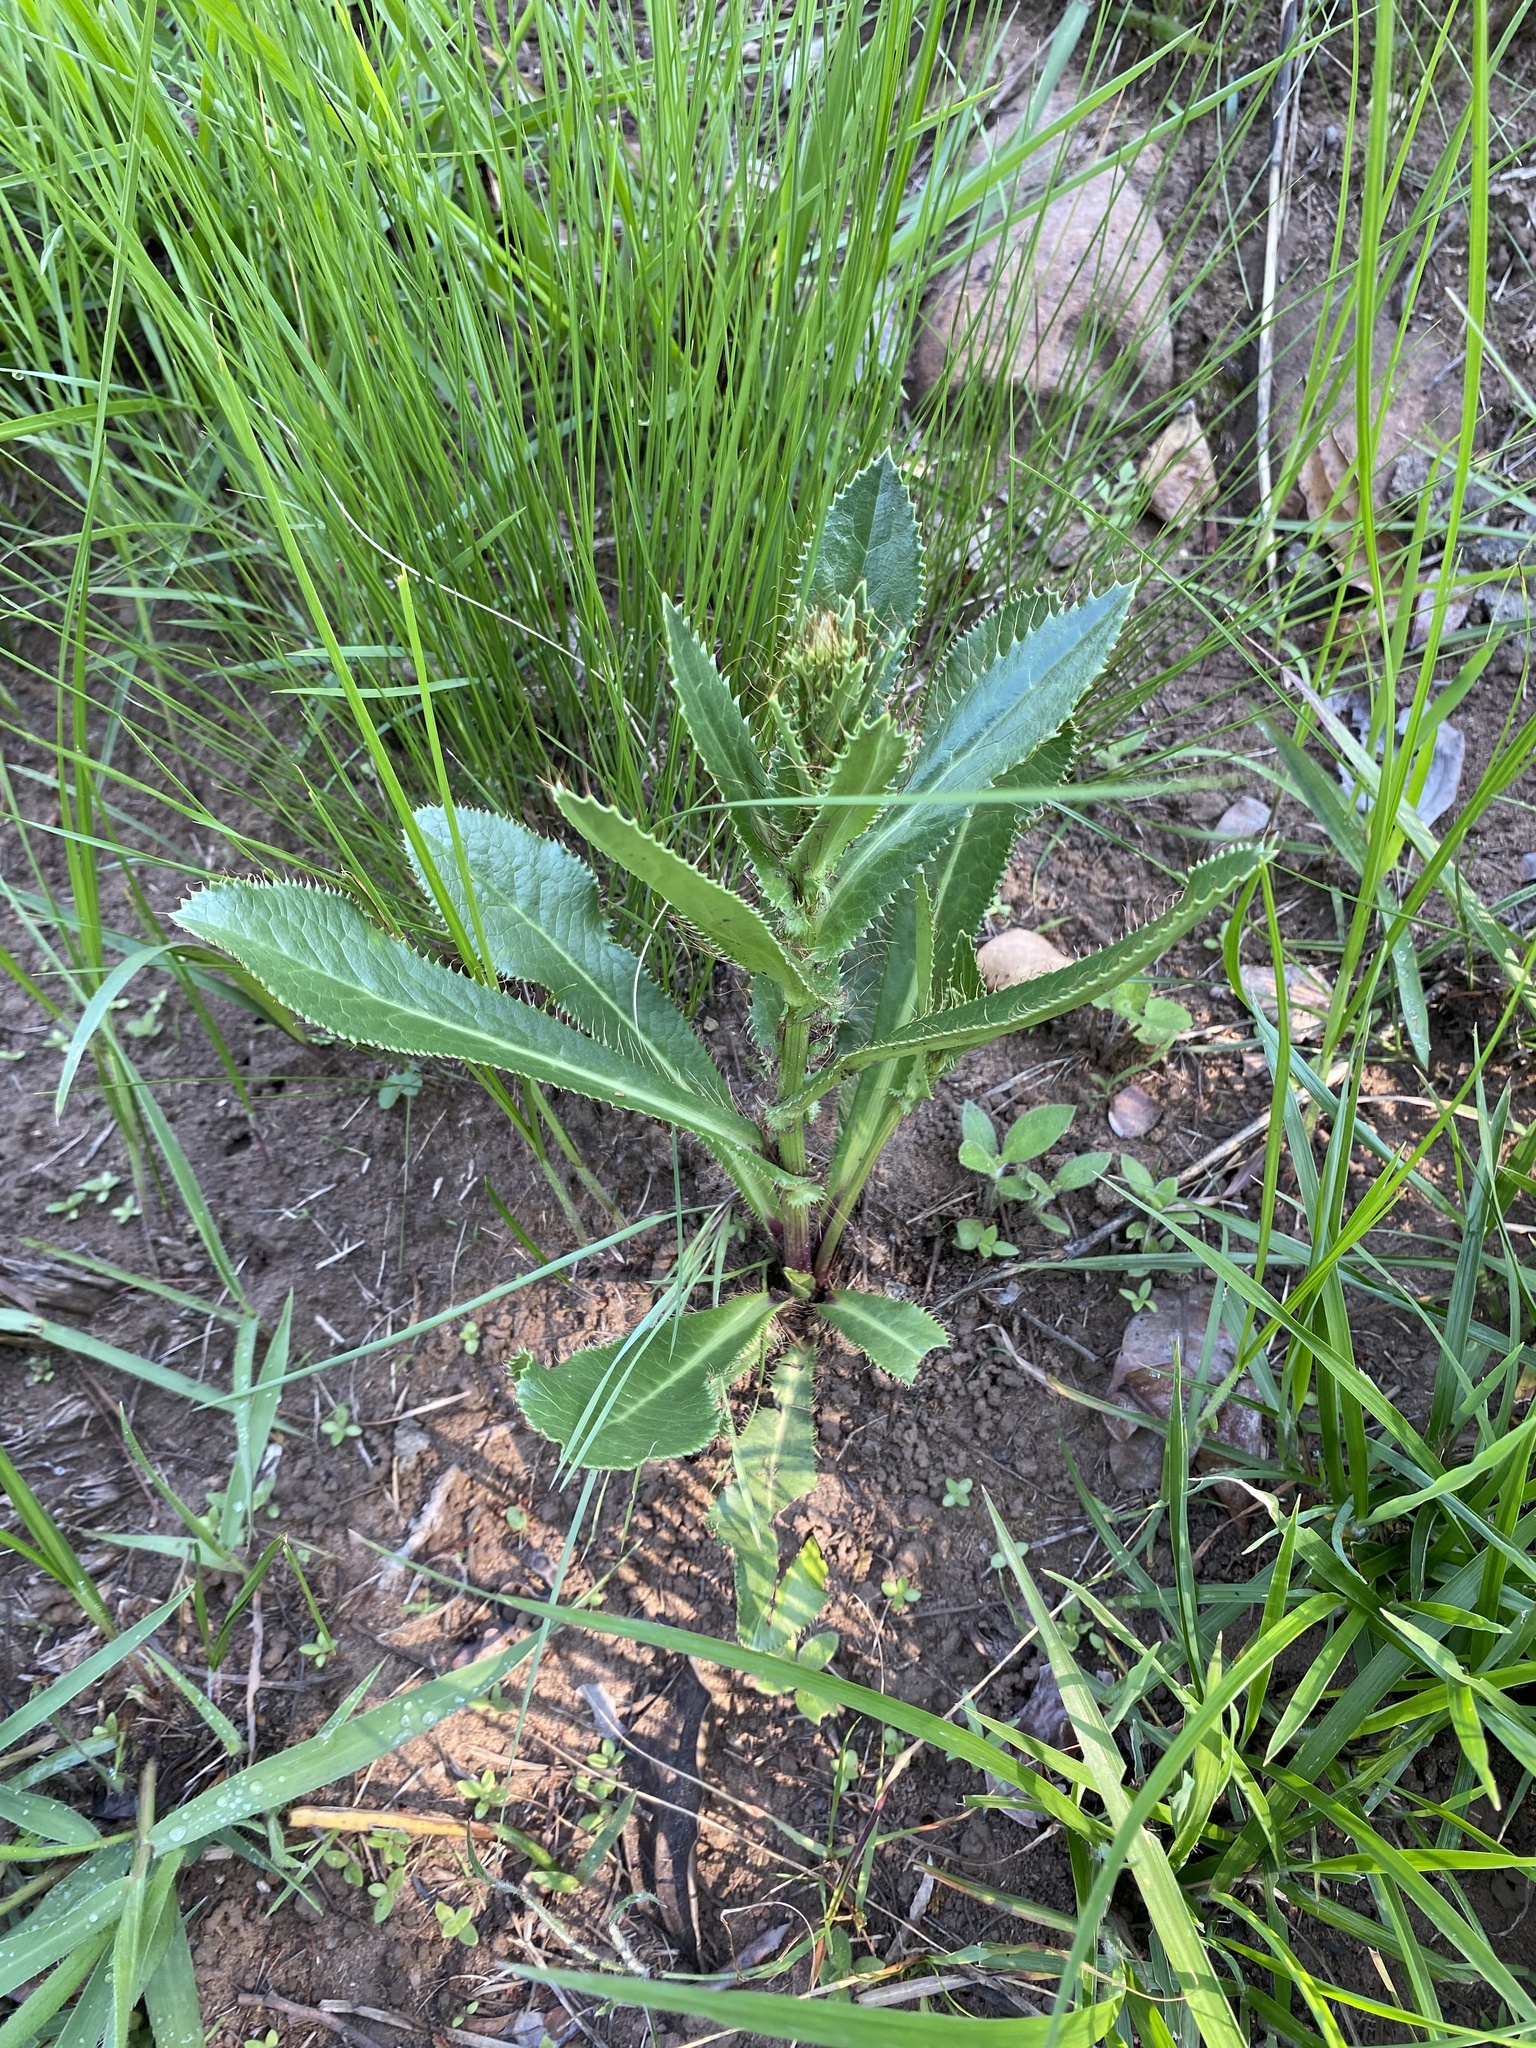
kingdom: Plantae
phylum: Tracheophyta
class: Magnoliopsida
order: Apiales
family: Apiaceae
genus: Alepidea
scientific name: Alepidea peduncularis
